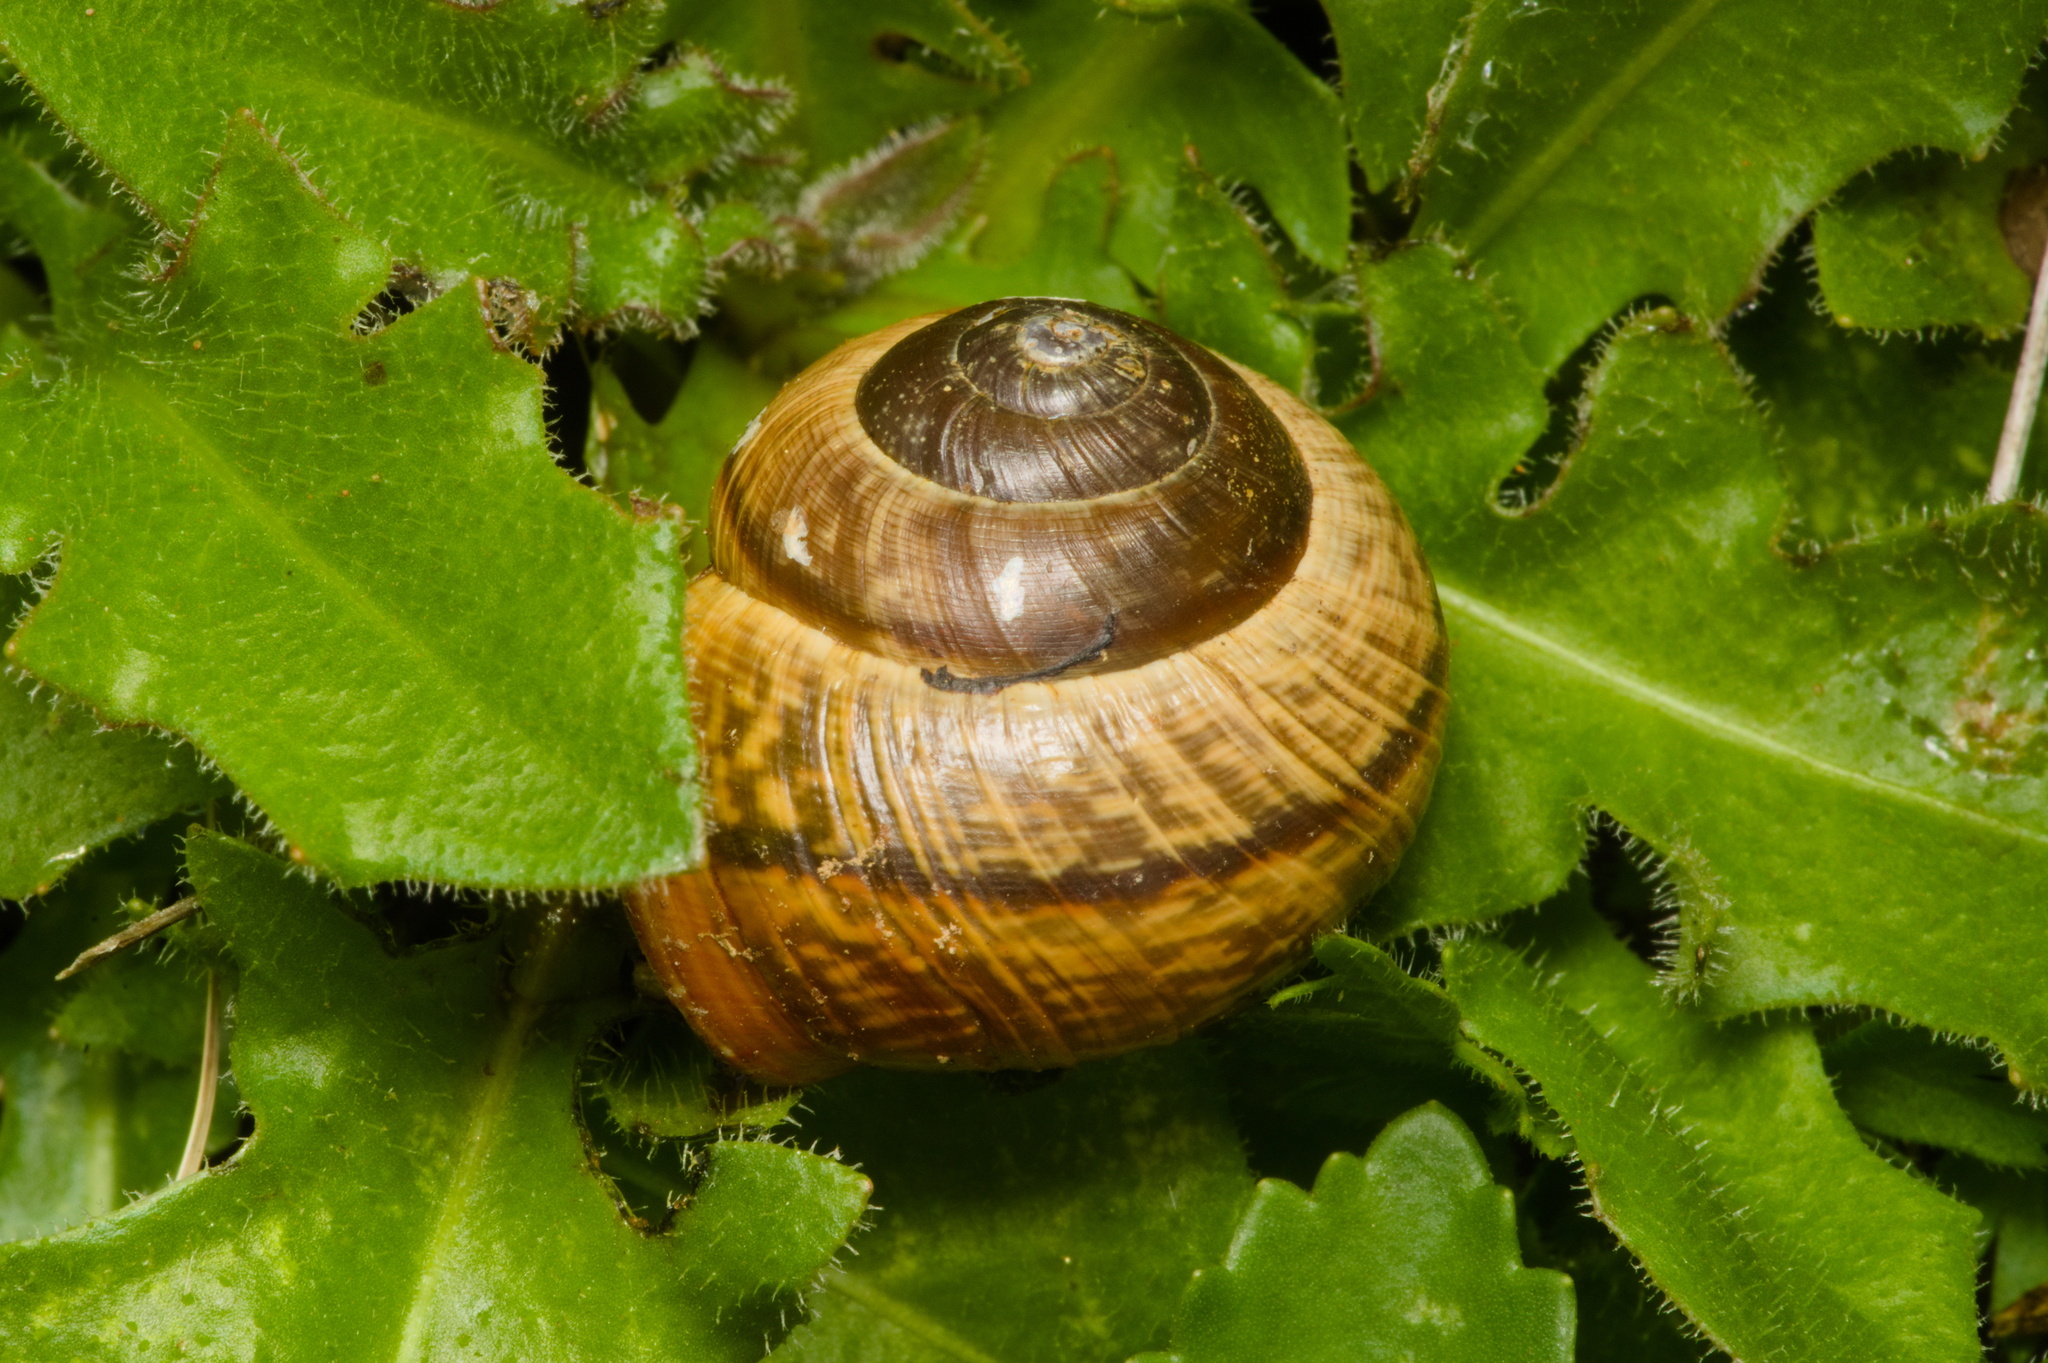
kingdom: Animalia
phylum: Mollusca
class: Gastropoda
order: Stylommatophora
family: Helicidae
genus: Arianta
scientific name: Arianta arbustorum
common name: Copse snail
